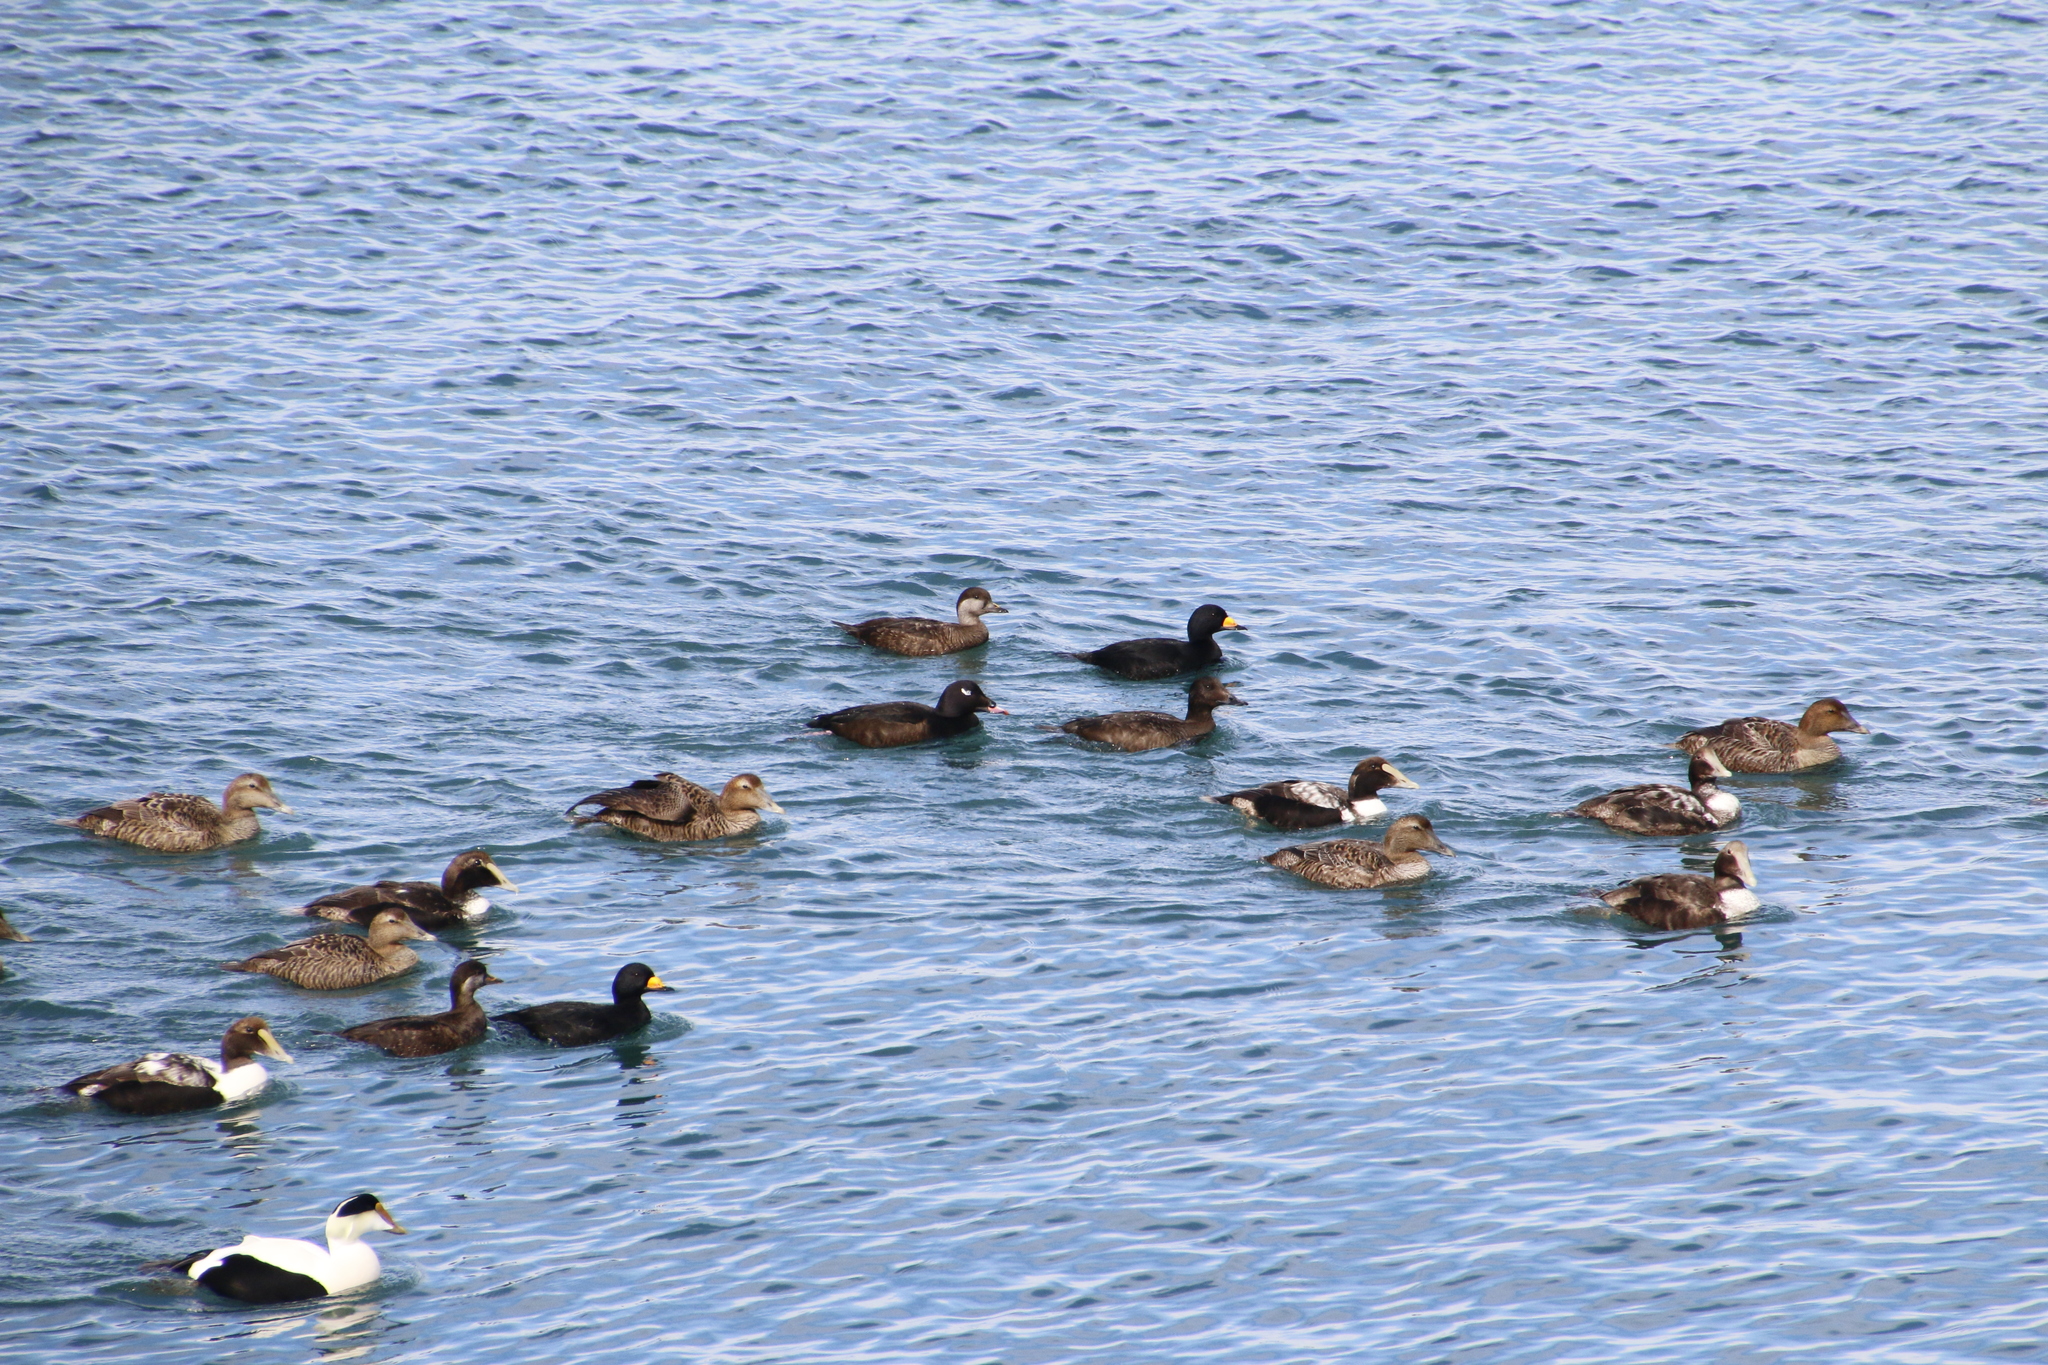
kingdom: Animalia
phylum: Chordata
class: Aves
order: Anseriformes
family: Anatidae
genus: Melanitta
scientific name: Melanitta deglandi
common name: White-winged scoter
